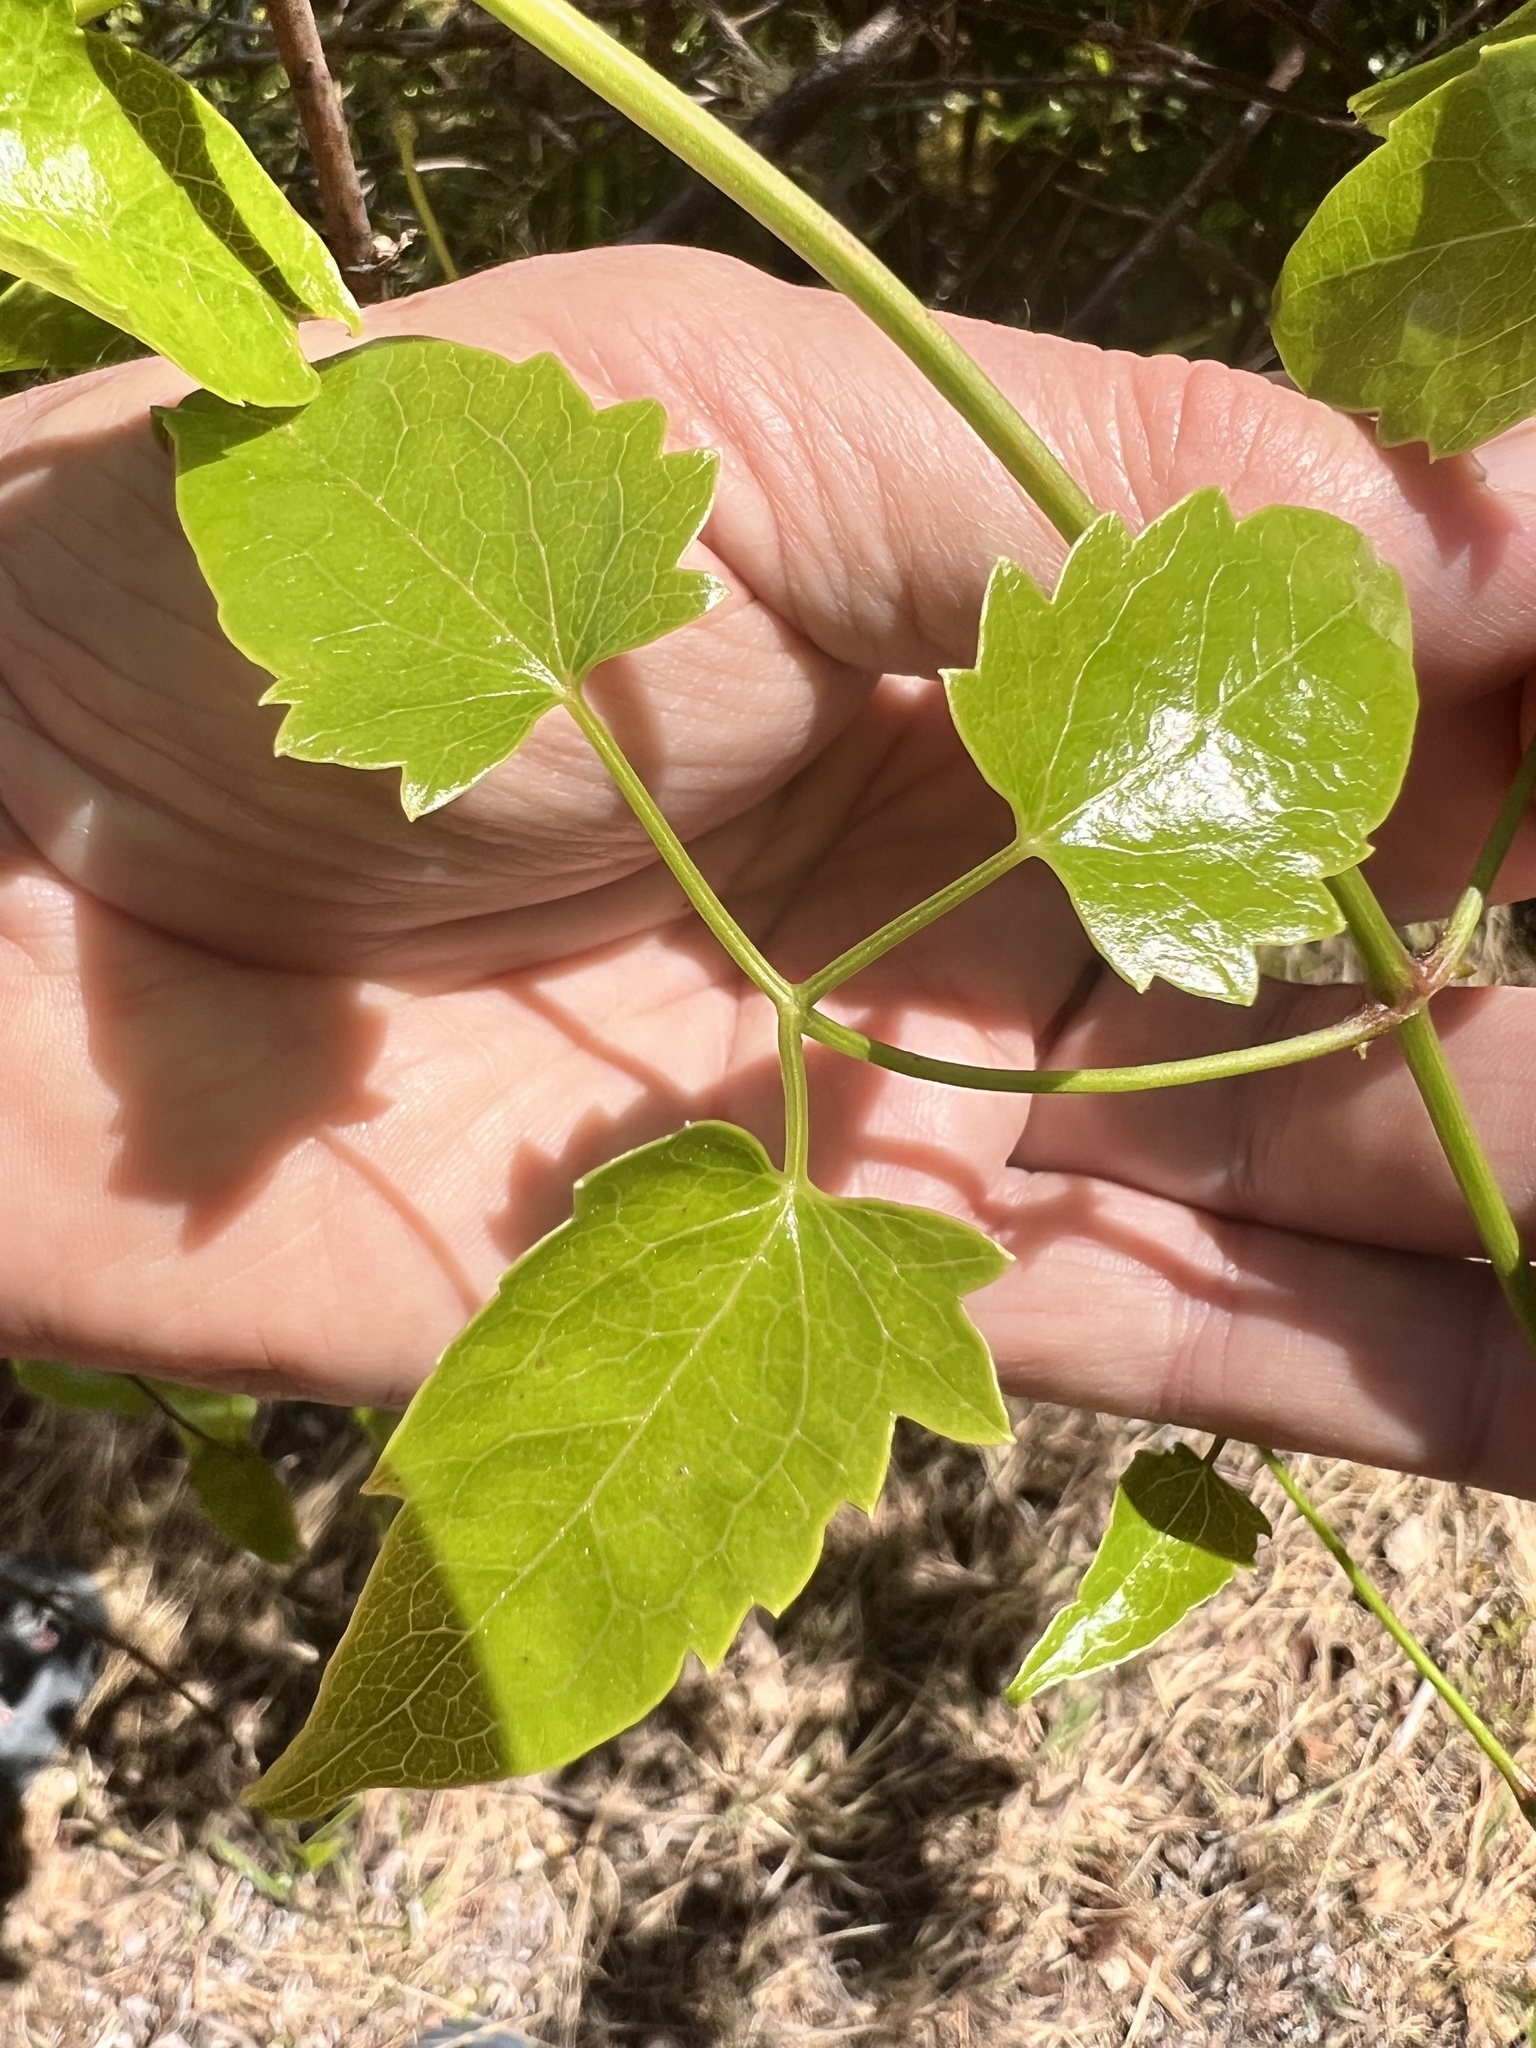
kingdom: Plantae
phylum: Tracheophyta
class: Magnoliopsida
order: Ranunculales
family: Ranunculaceae
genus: Clematis
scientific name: Clematis forsteri
